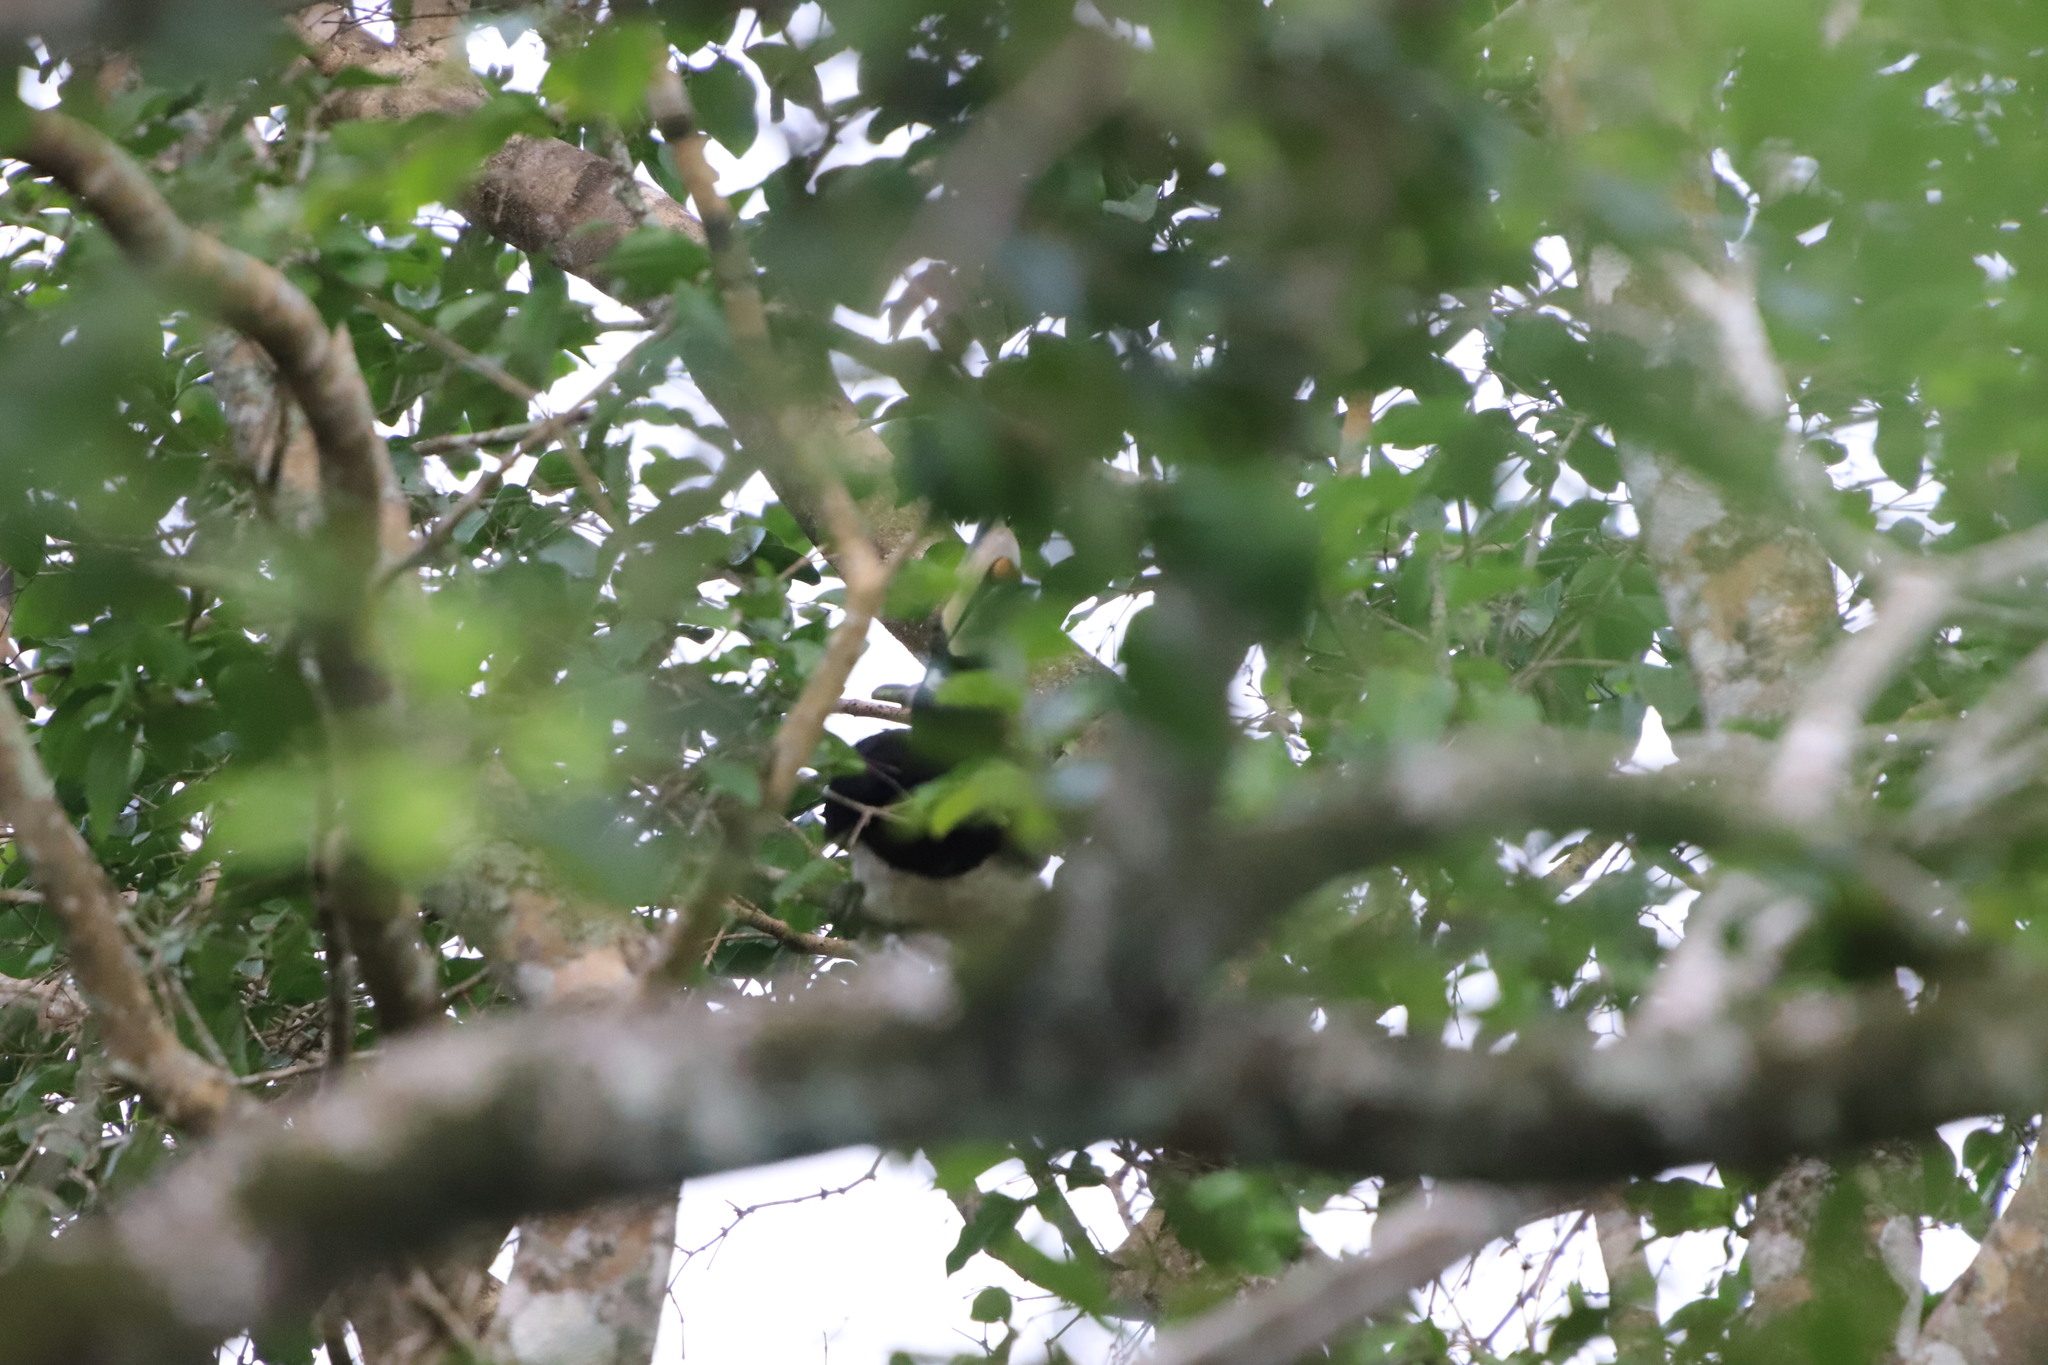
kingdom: Animalia
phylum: Chordata
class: Aves
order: Bucerotiformes
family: Bucerotidae
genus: Anthracoceros
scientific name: Anthracoceros coronatus
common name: Malabar pied hornbill
